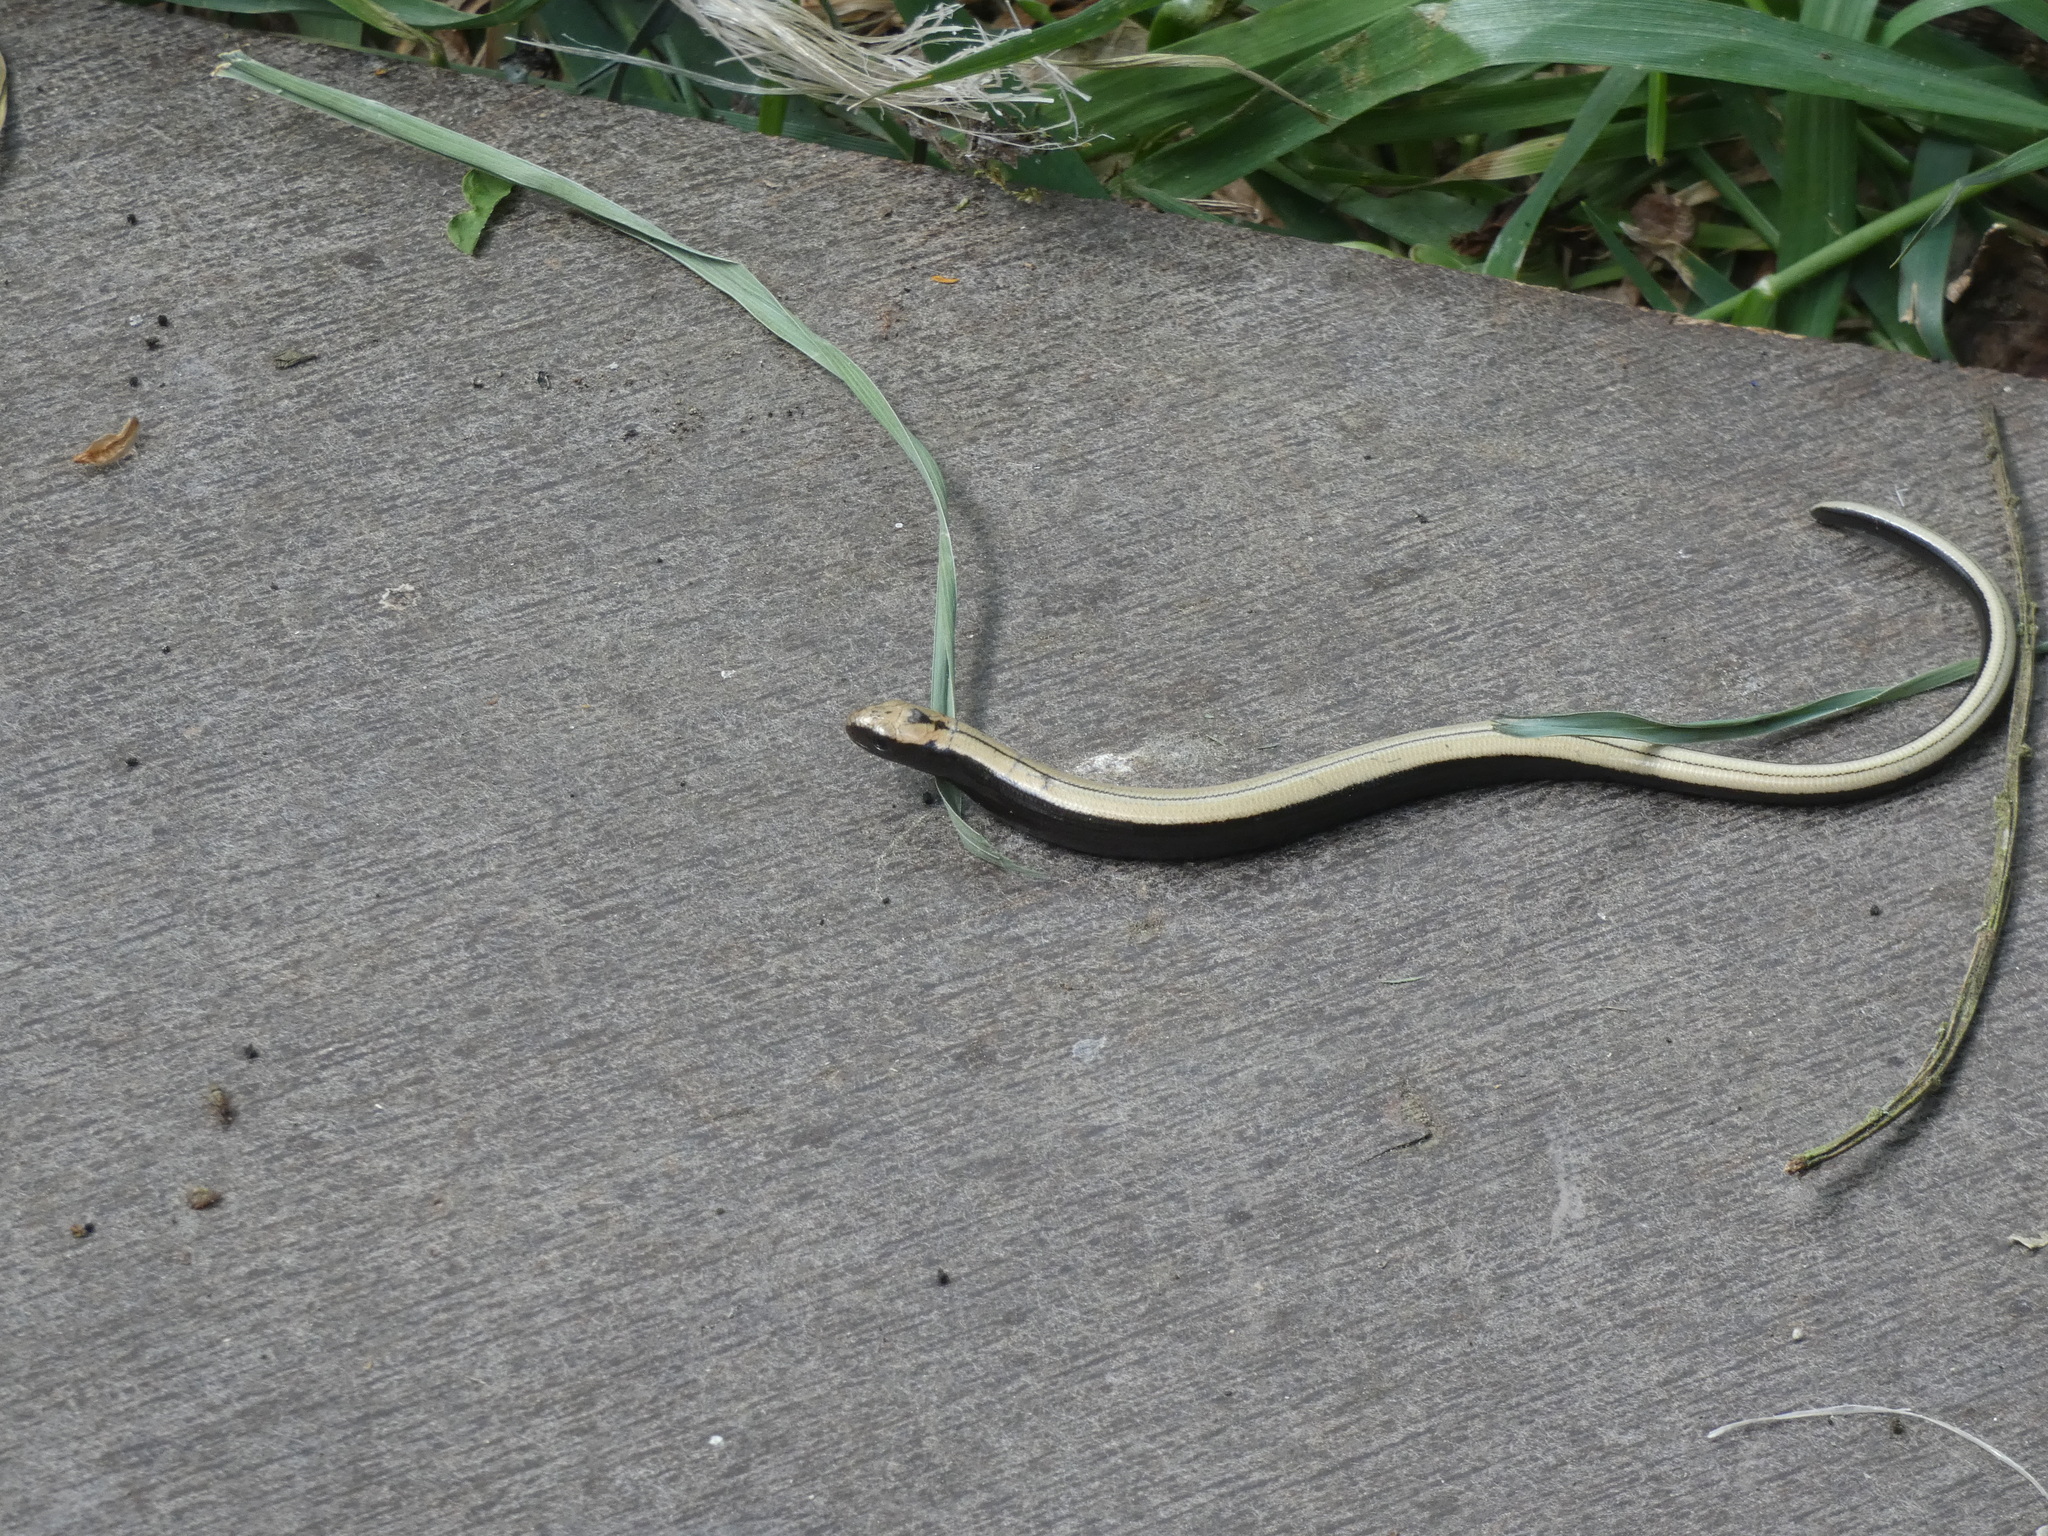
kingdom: Animalia
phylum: Chordata
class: Squamata
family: Anguidae
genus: Anguis
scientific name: Anguis fragilis
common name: Slow worm
